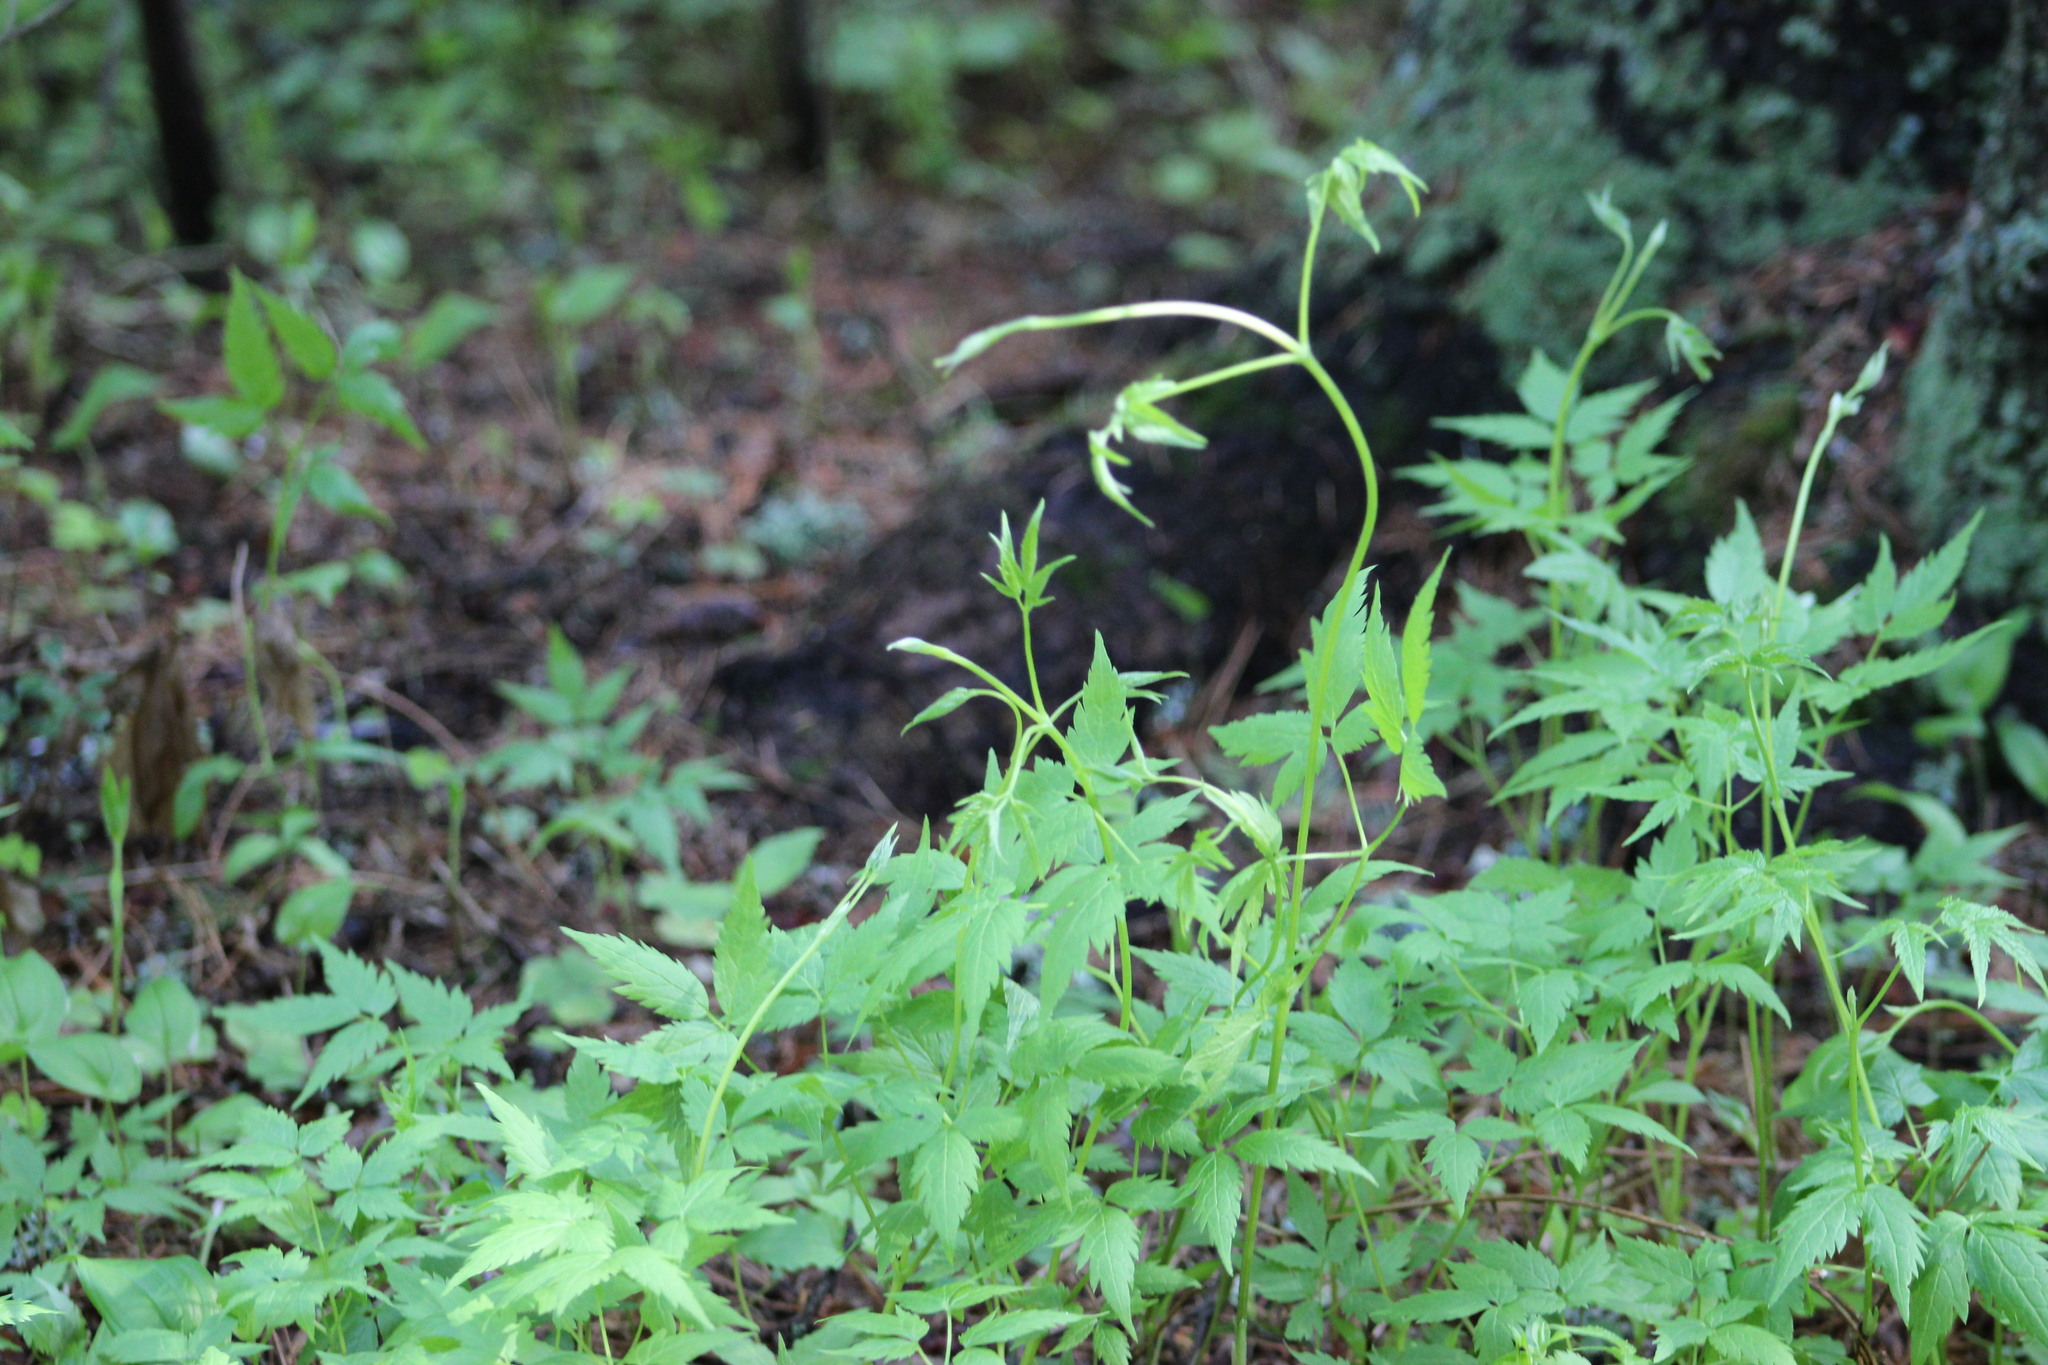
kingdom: Plantae
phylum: Tracheophyta
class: Magnoliopsida
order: Ranunculales
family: Ranunculaceae
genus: Clematis
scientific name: Clematis sibirica
